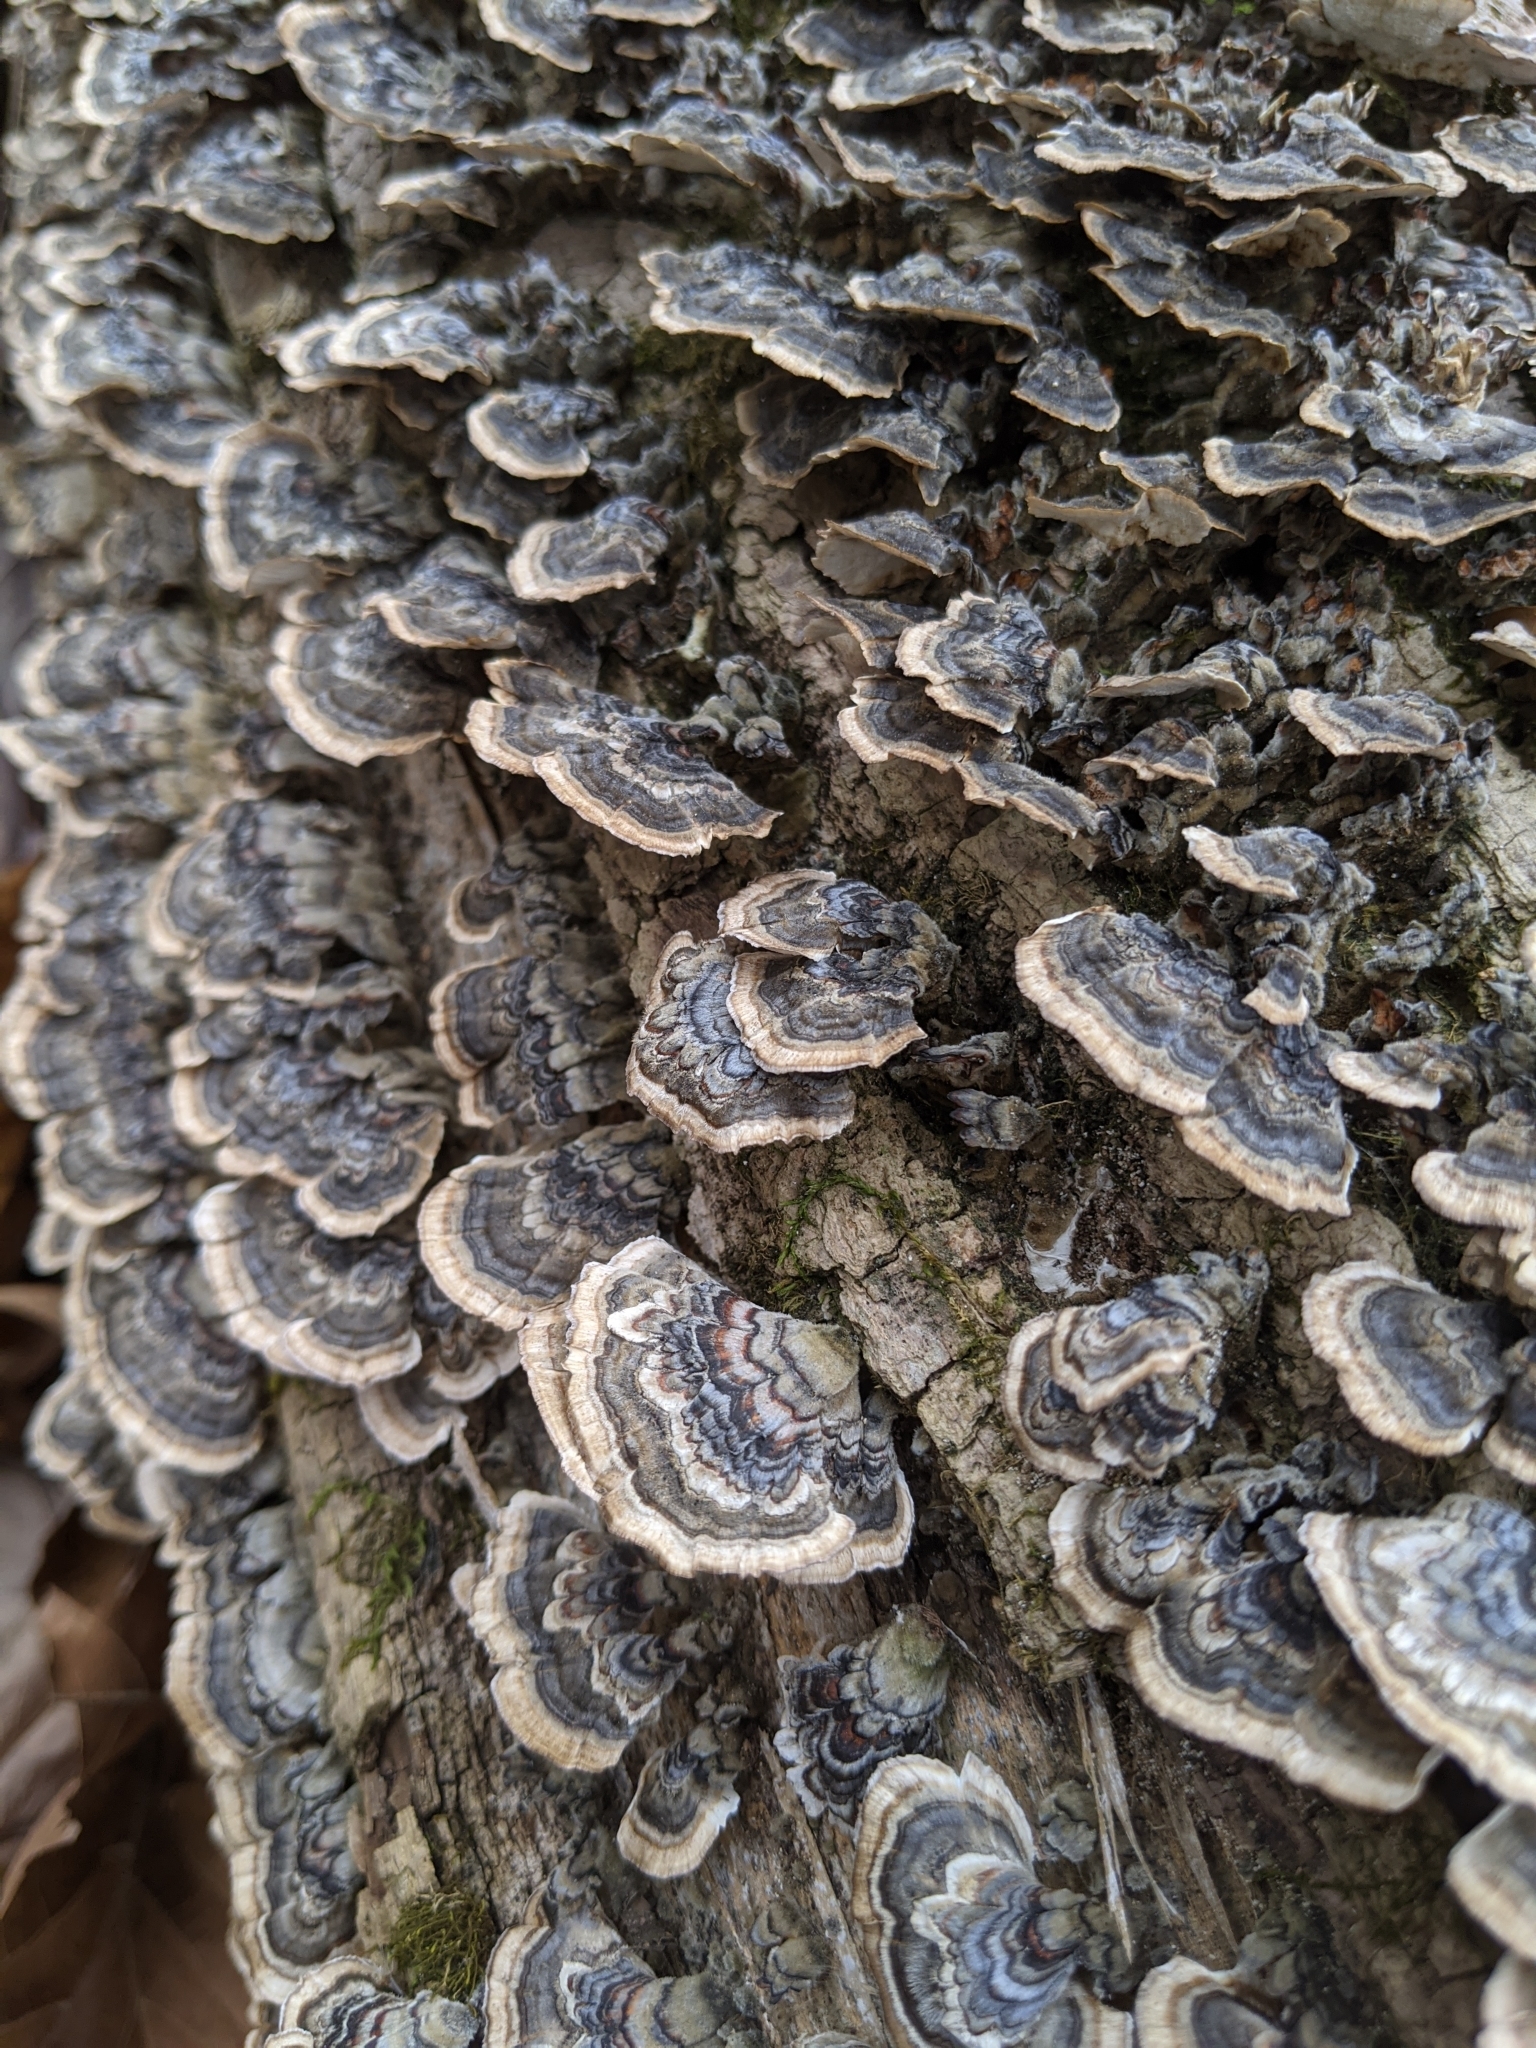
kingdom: Fungi
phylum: Basidiomycota
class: Agaricomycetes
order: Polyporales
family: Polyporaceae
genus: Trametes
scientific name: Trametes versicolor
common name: Turkeytail
